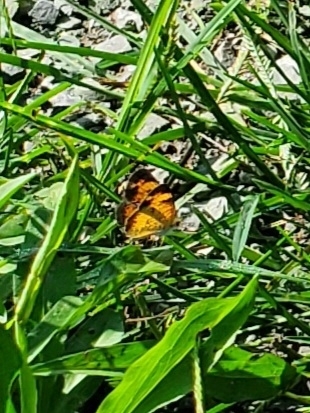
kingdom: Animalia
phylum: Arthropoda
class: Insecta
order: Lepidoptera
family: Nymphalidae
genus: Phyciodes
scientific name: Phyciodes tharos
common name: Pearl crescent
